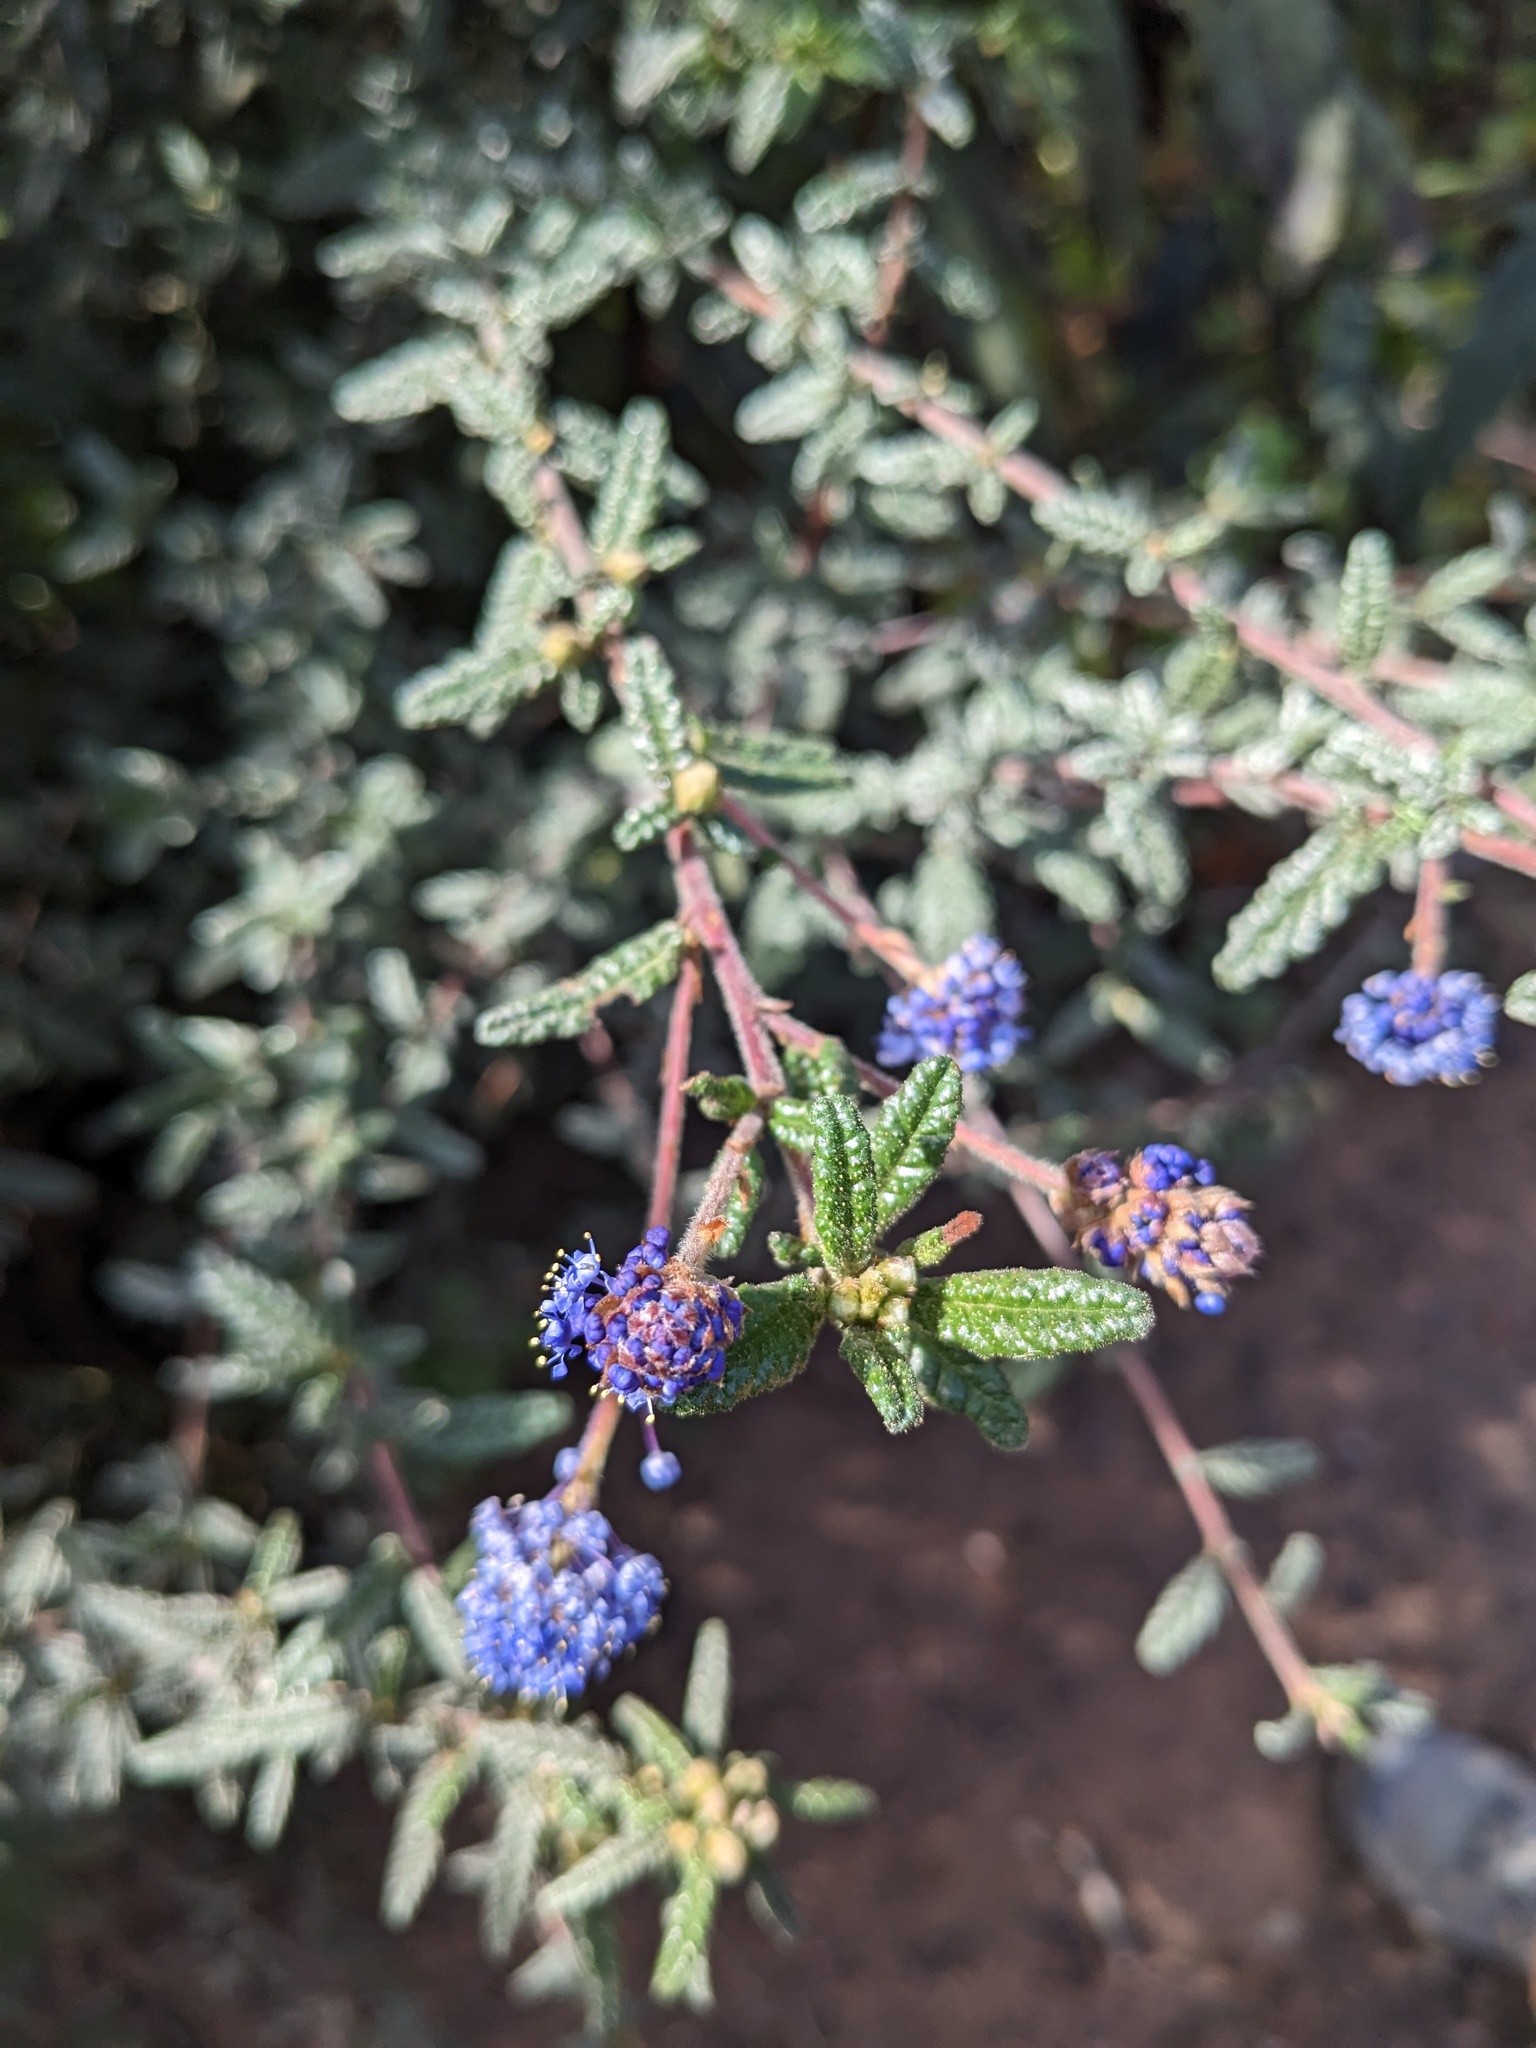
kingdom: Plantae
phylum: Tracheophyta
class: Magnoliopsida
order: Rosales
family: Rhamnaceae
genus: Ceanothus
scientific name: Ceanothus papillosus
